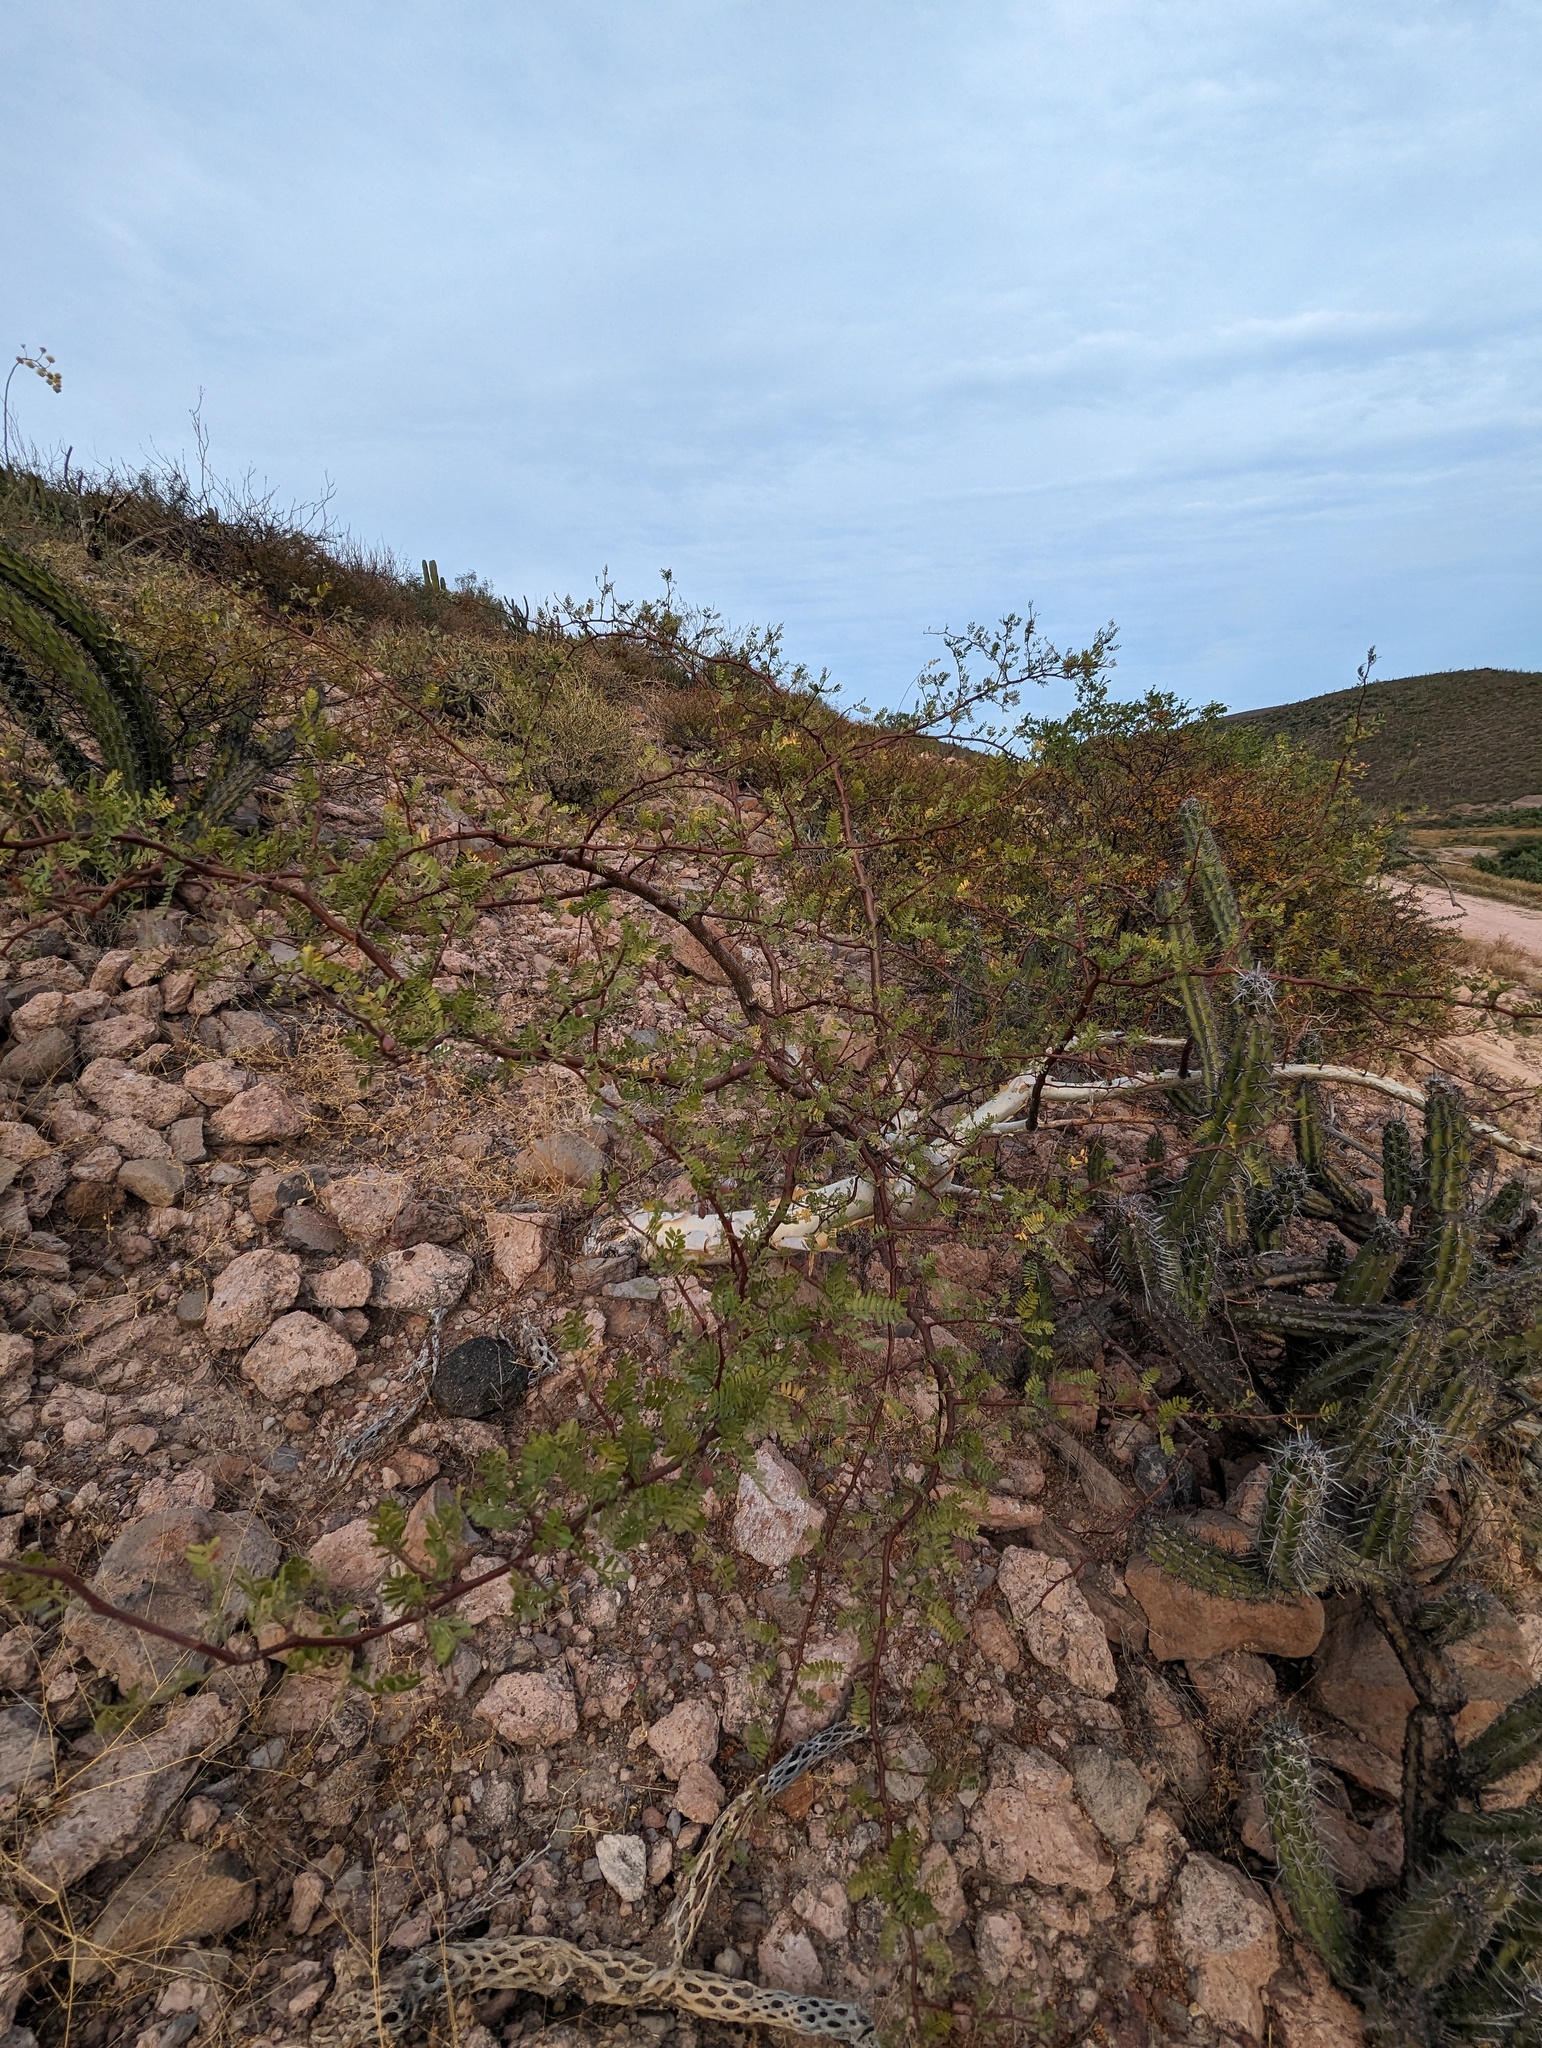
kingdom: Plantae
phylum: Tracheophyta
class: Magnoliopsida
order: Sapindales
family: Burseraceae
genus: Bursera
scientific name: Bursera microphylla
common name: Elephant tree
